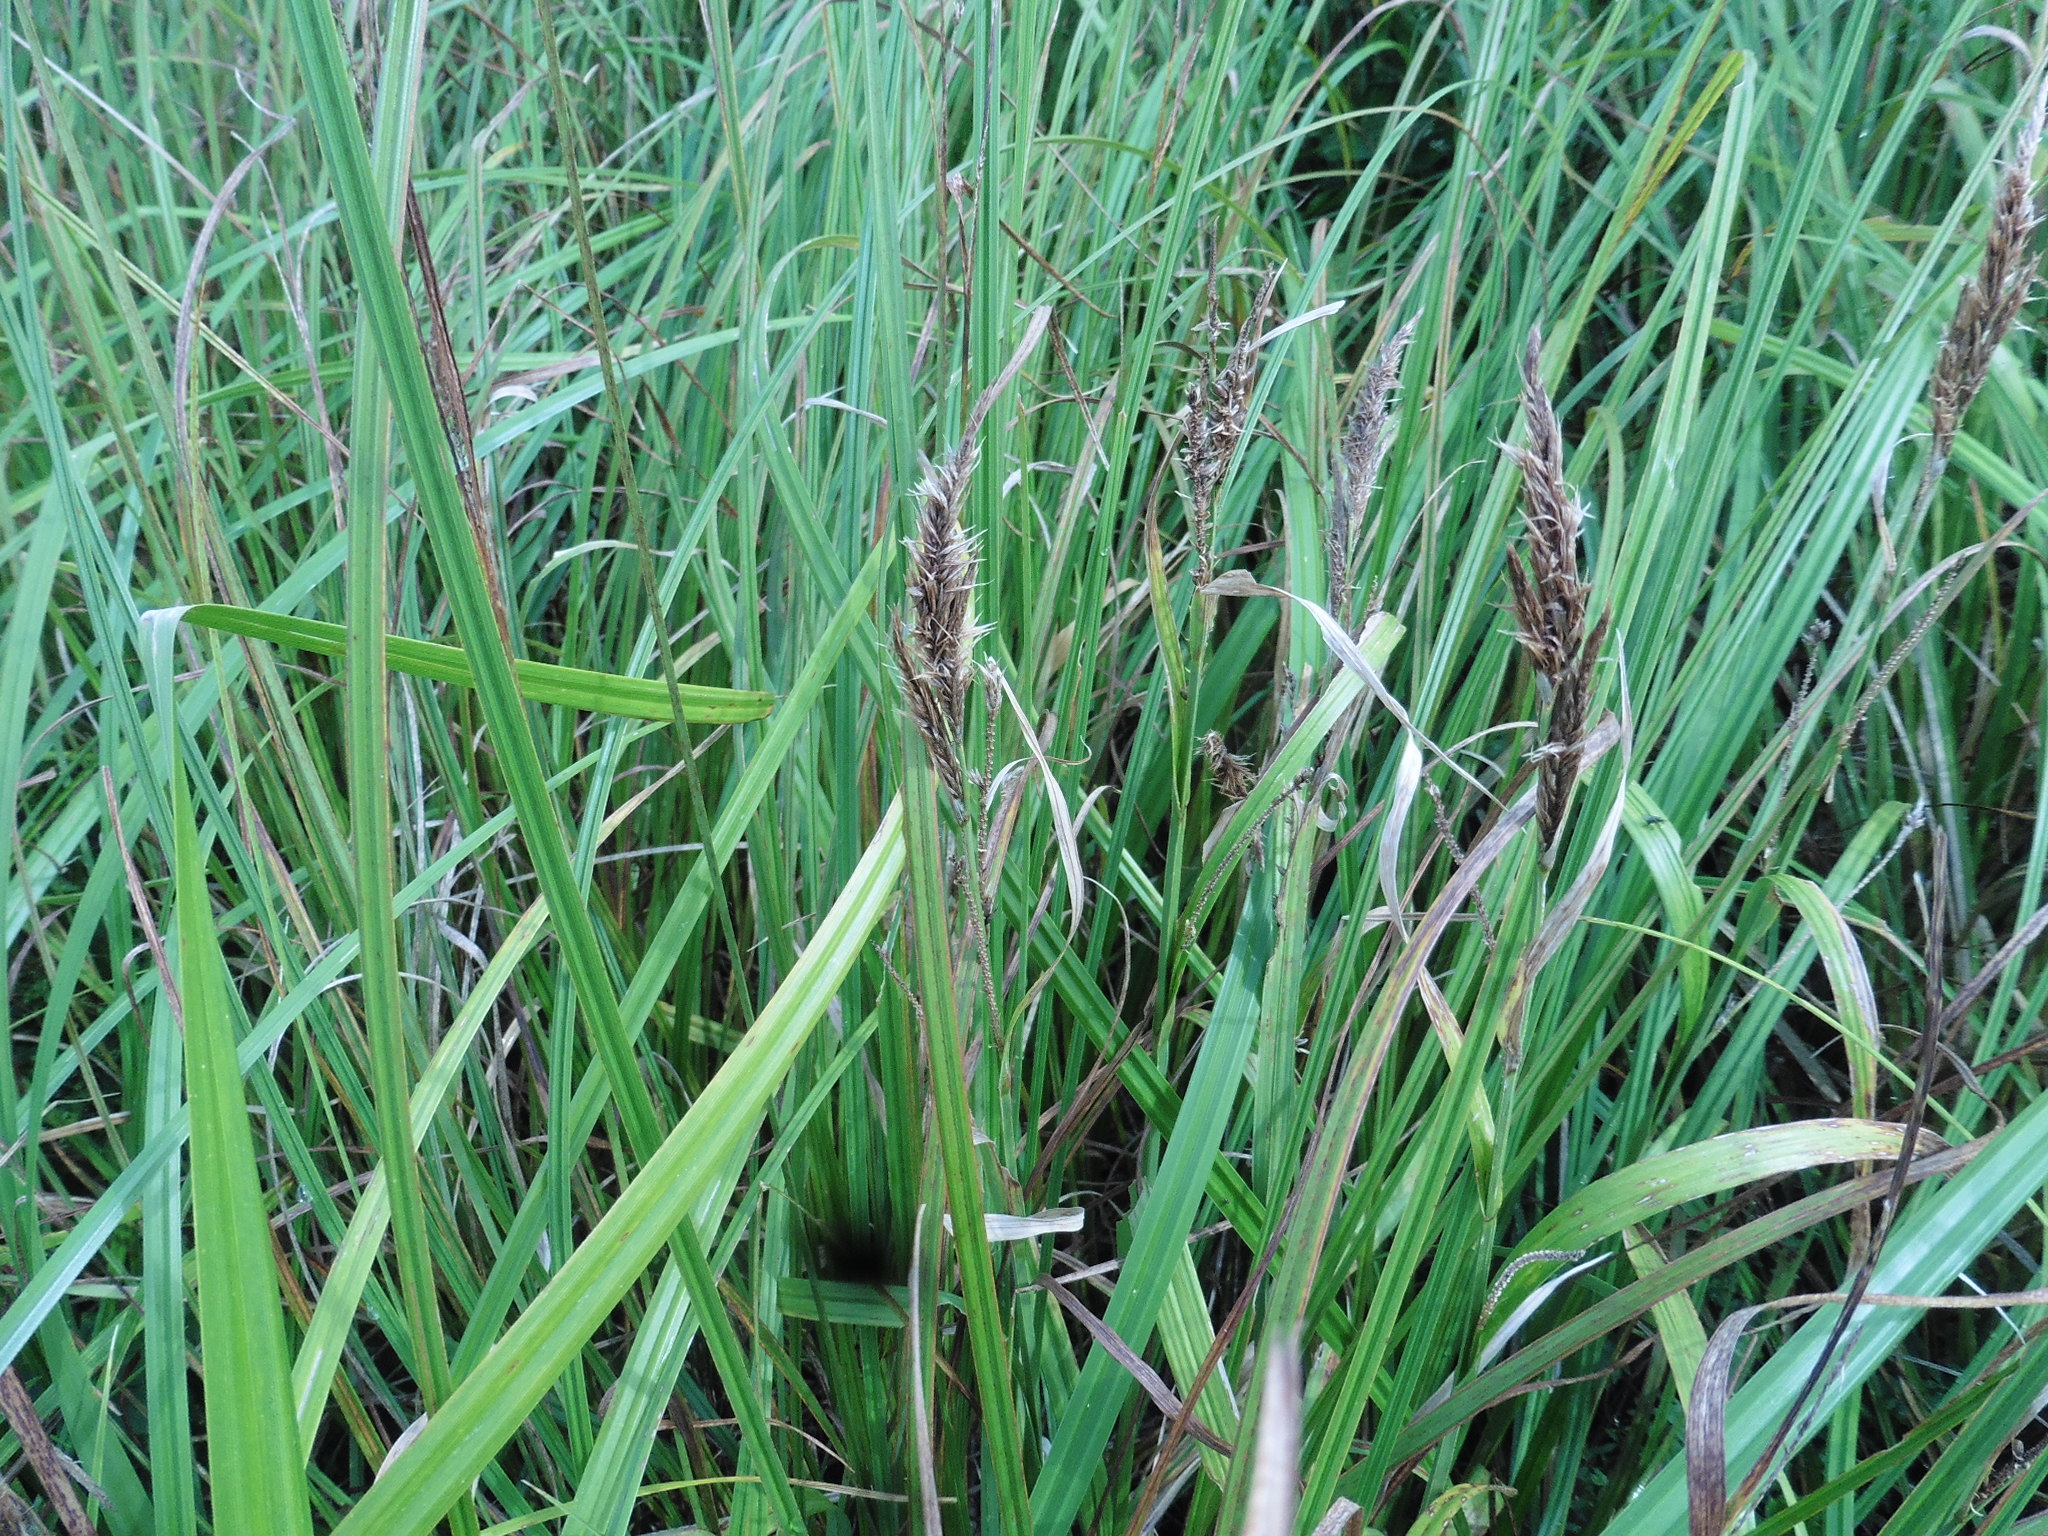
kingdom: Plantae
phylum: Tracheophyta
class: Liliopsida
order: Poales
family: Cyperaceae
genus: Carex
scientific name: Carex riparia
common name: Greater pond-sedge
